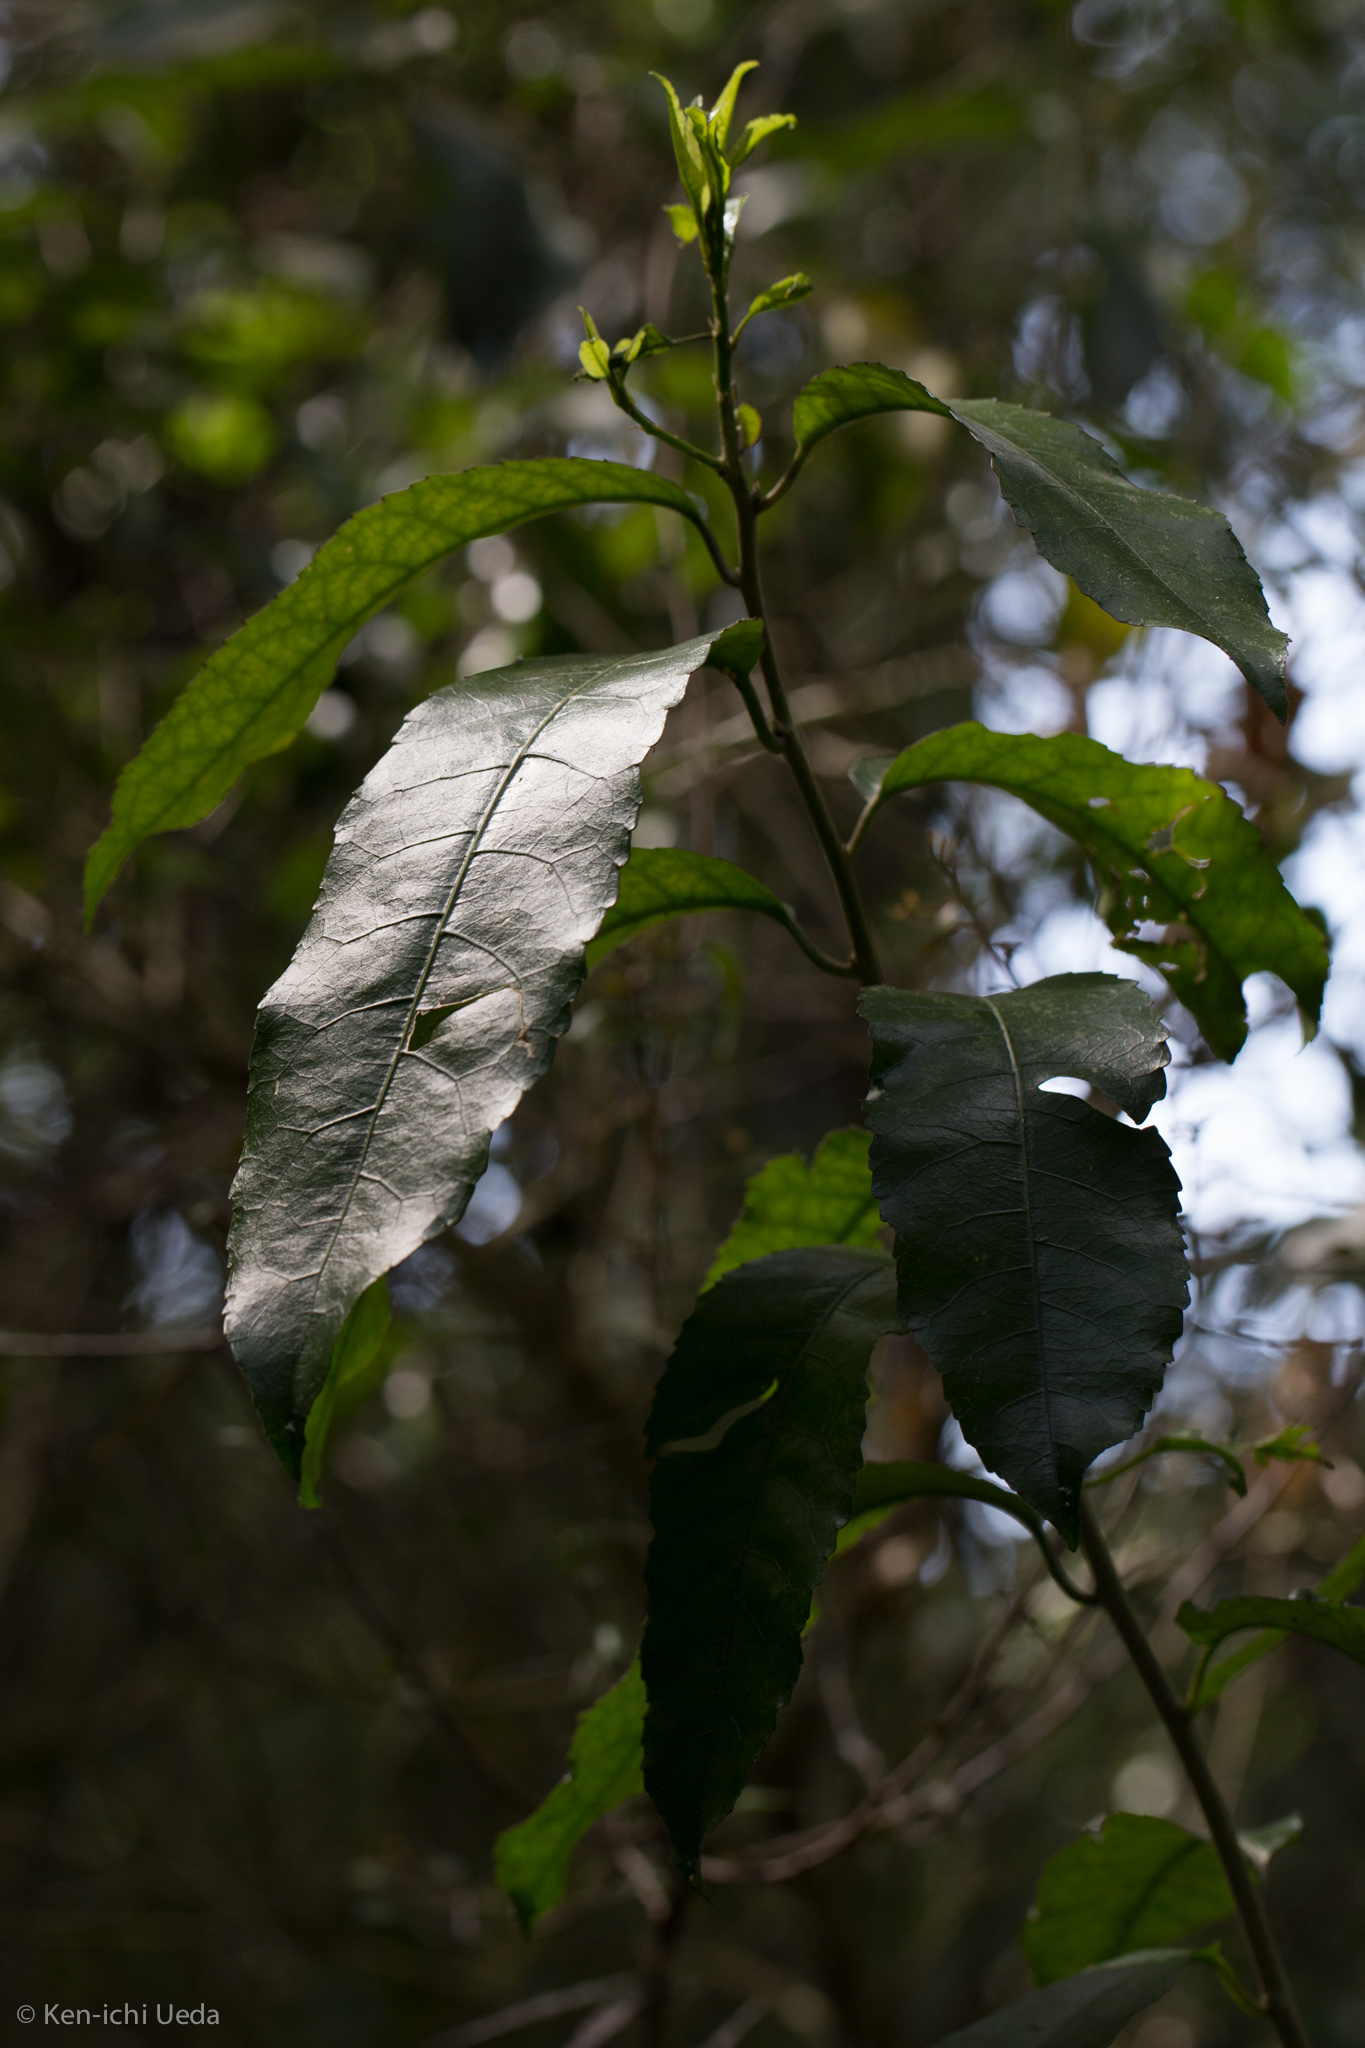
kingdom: Plantae
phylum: Tracheophyta
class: Magnoliopsida
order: Malpighiales
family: Violaceae
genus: Melicytus
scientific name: Melicytus ramiflorus
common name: Mahoe
